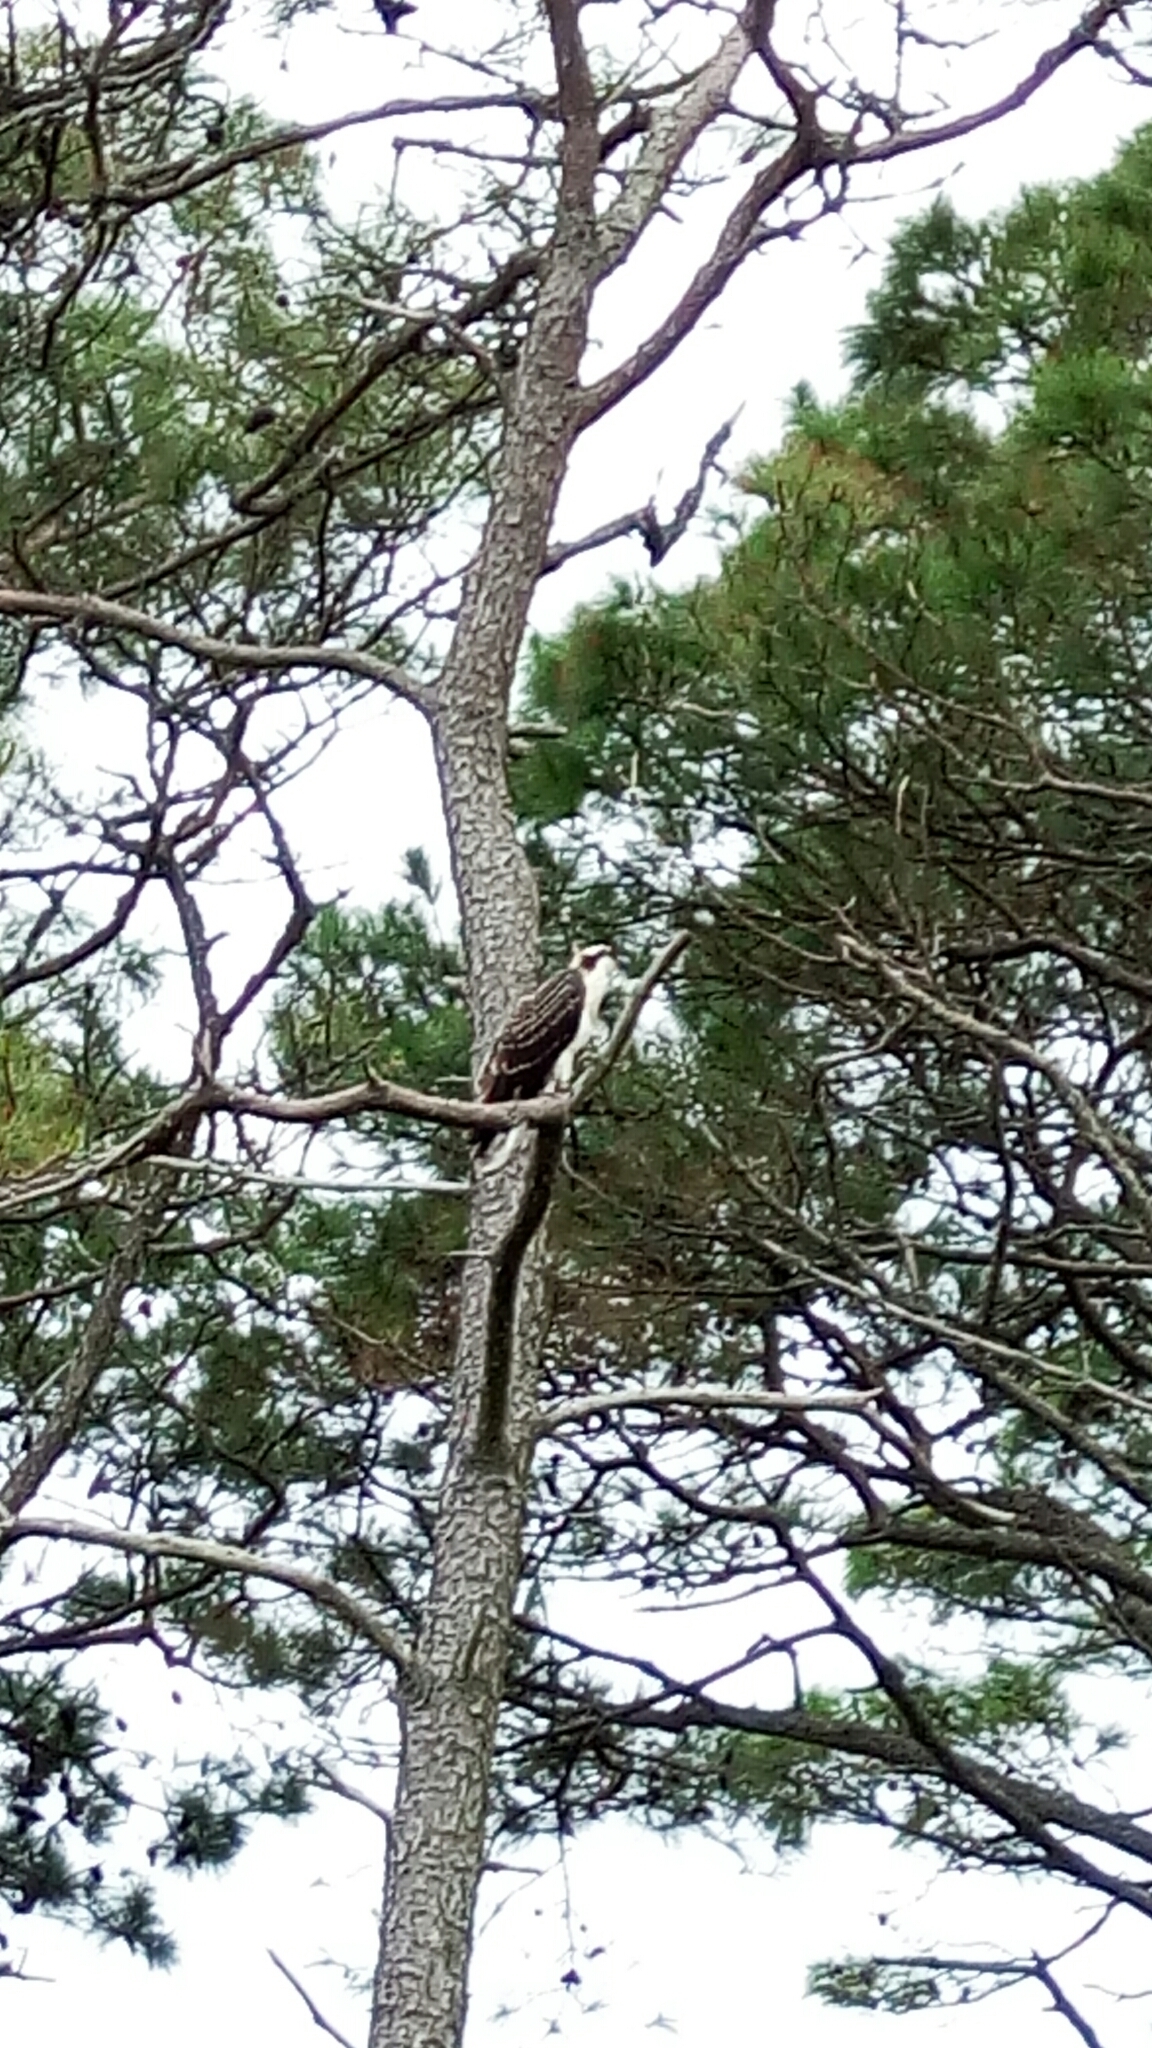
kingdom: Animalia
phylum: Chordata
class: Aves
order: Accipitriformes
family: Pandionidae
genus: Pandion
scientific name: Pandion haliaetus
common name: Osprey
